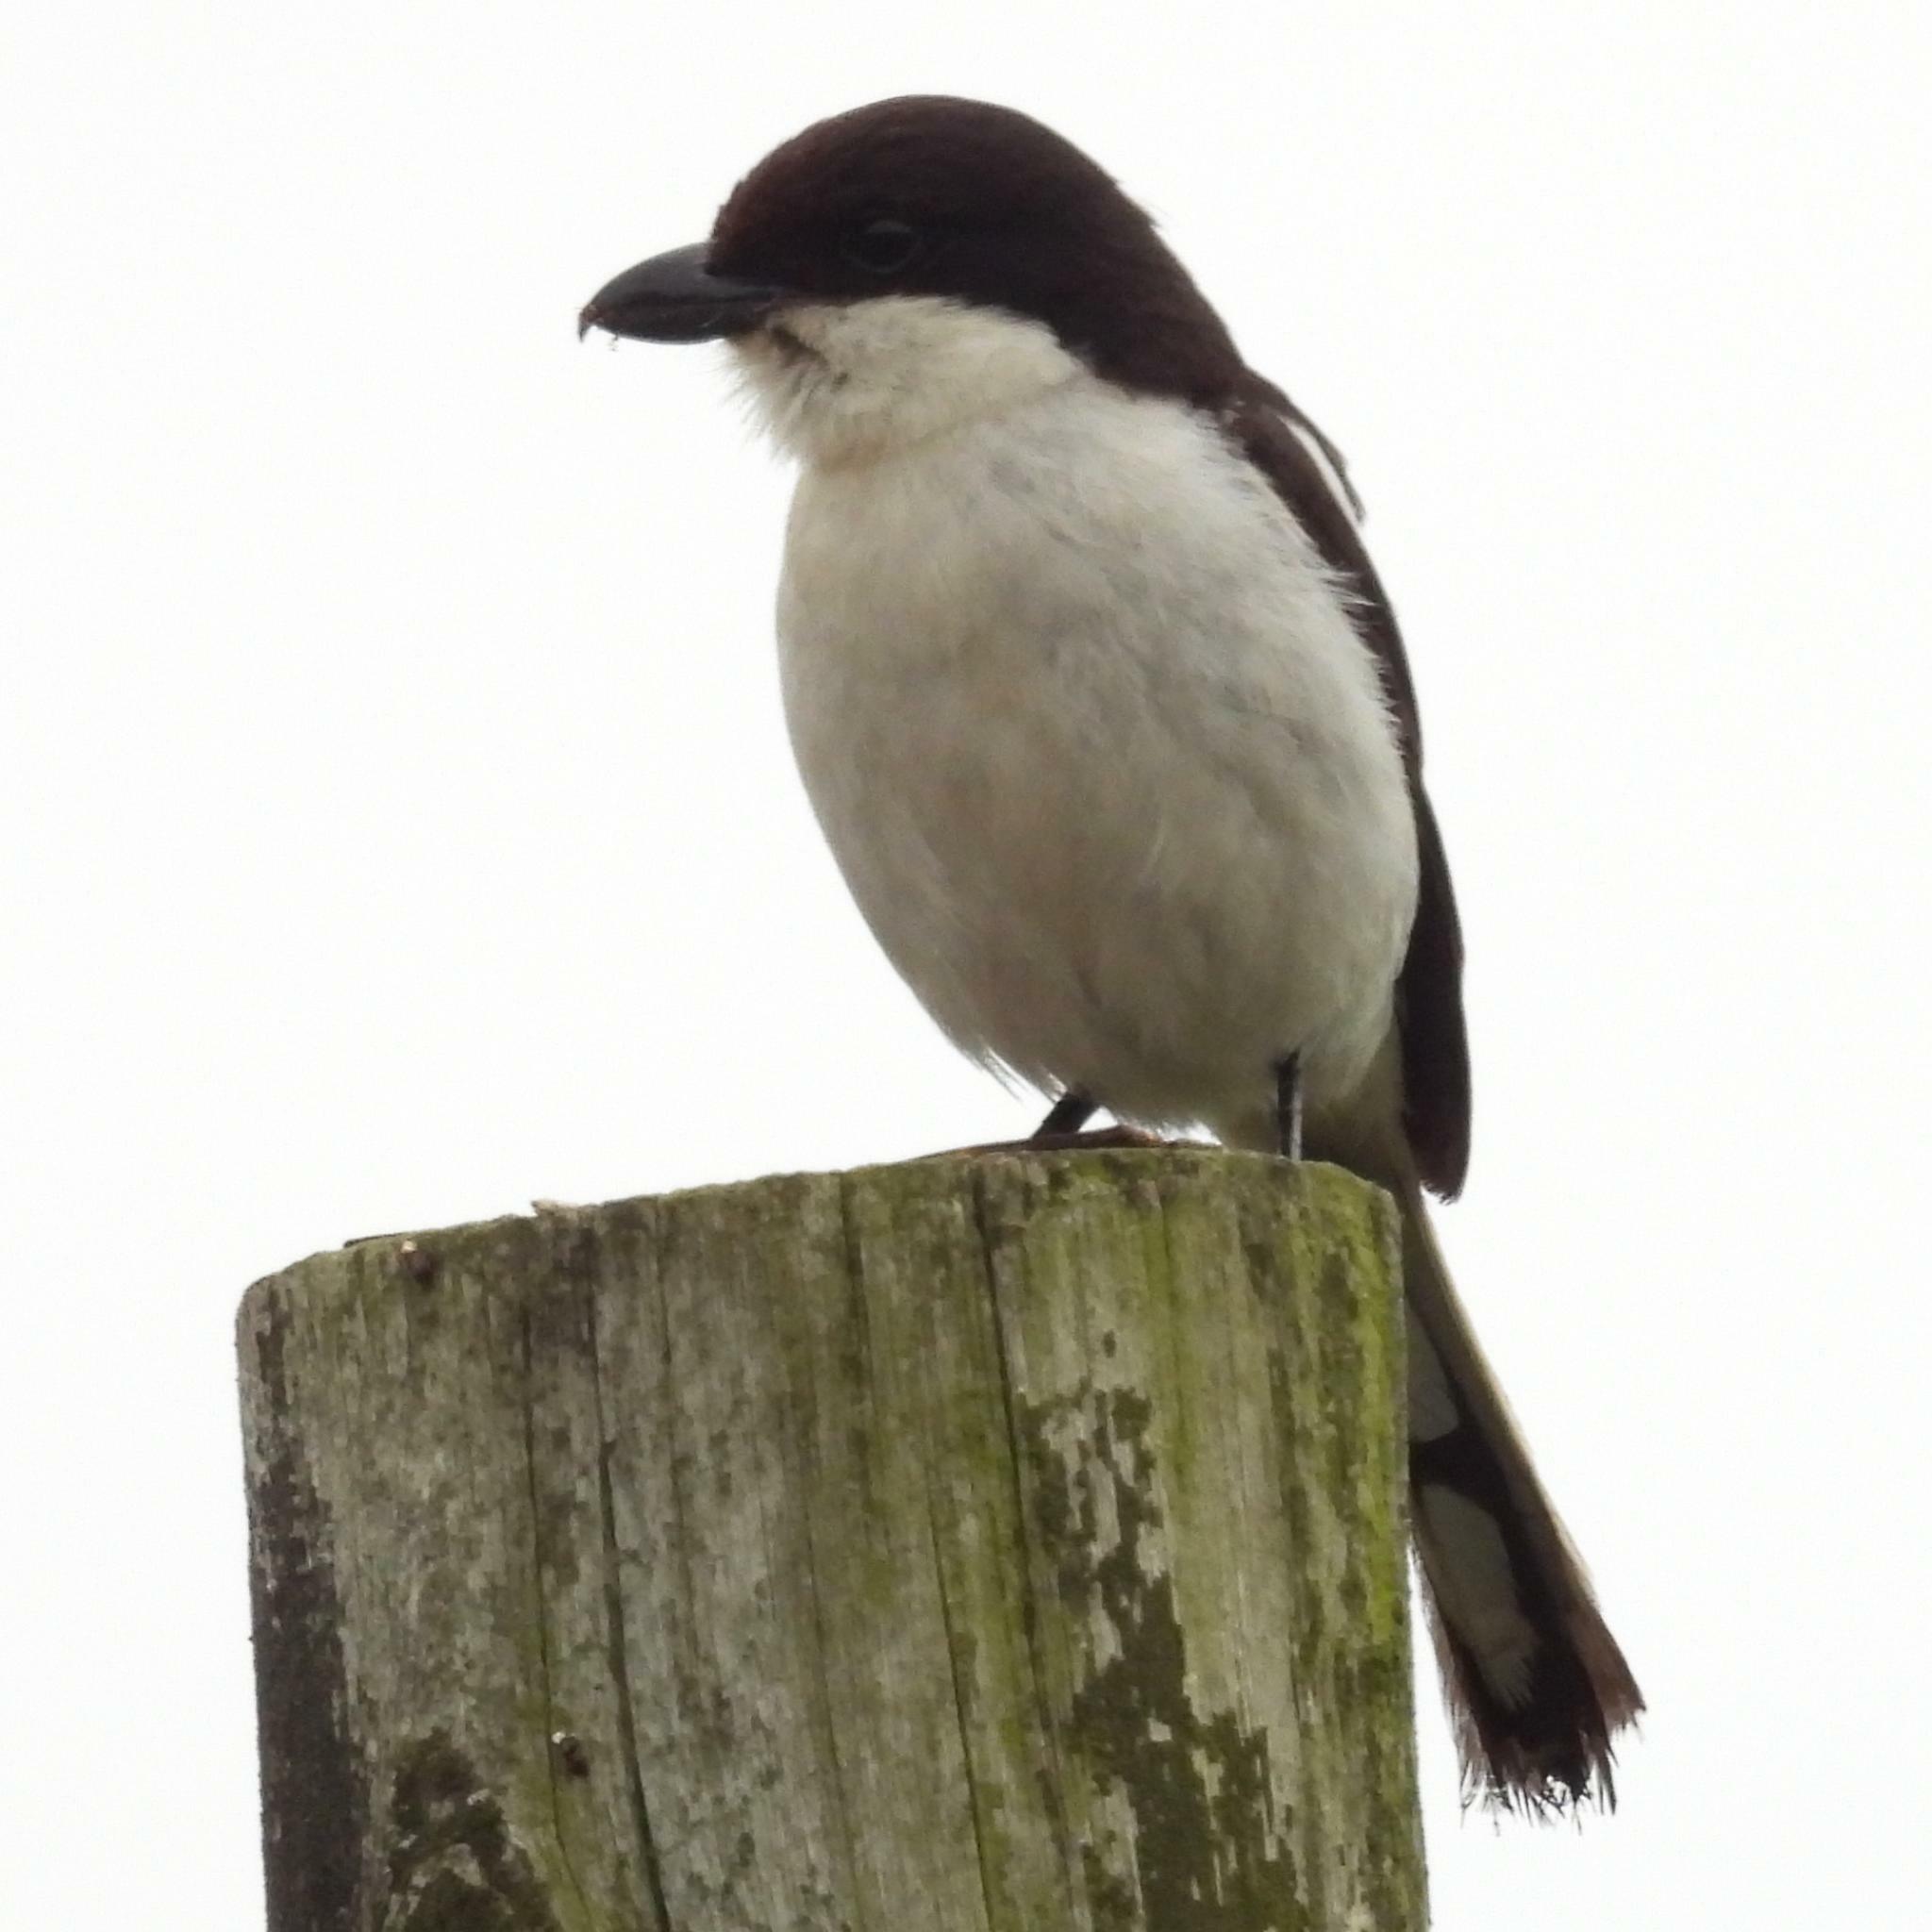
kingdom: Animalia
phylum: Chordata
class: Aves
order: Passeriformes
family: Laniidae
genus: Lanius
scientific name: Lanius collaris
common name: Southern fiscal
